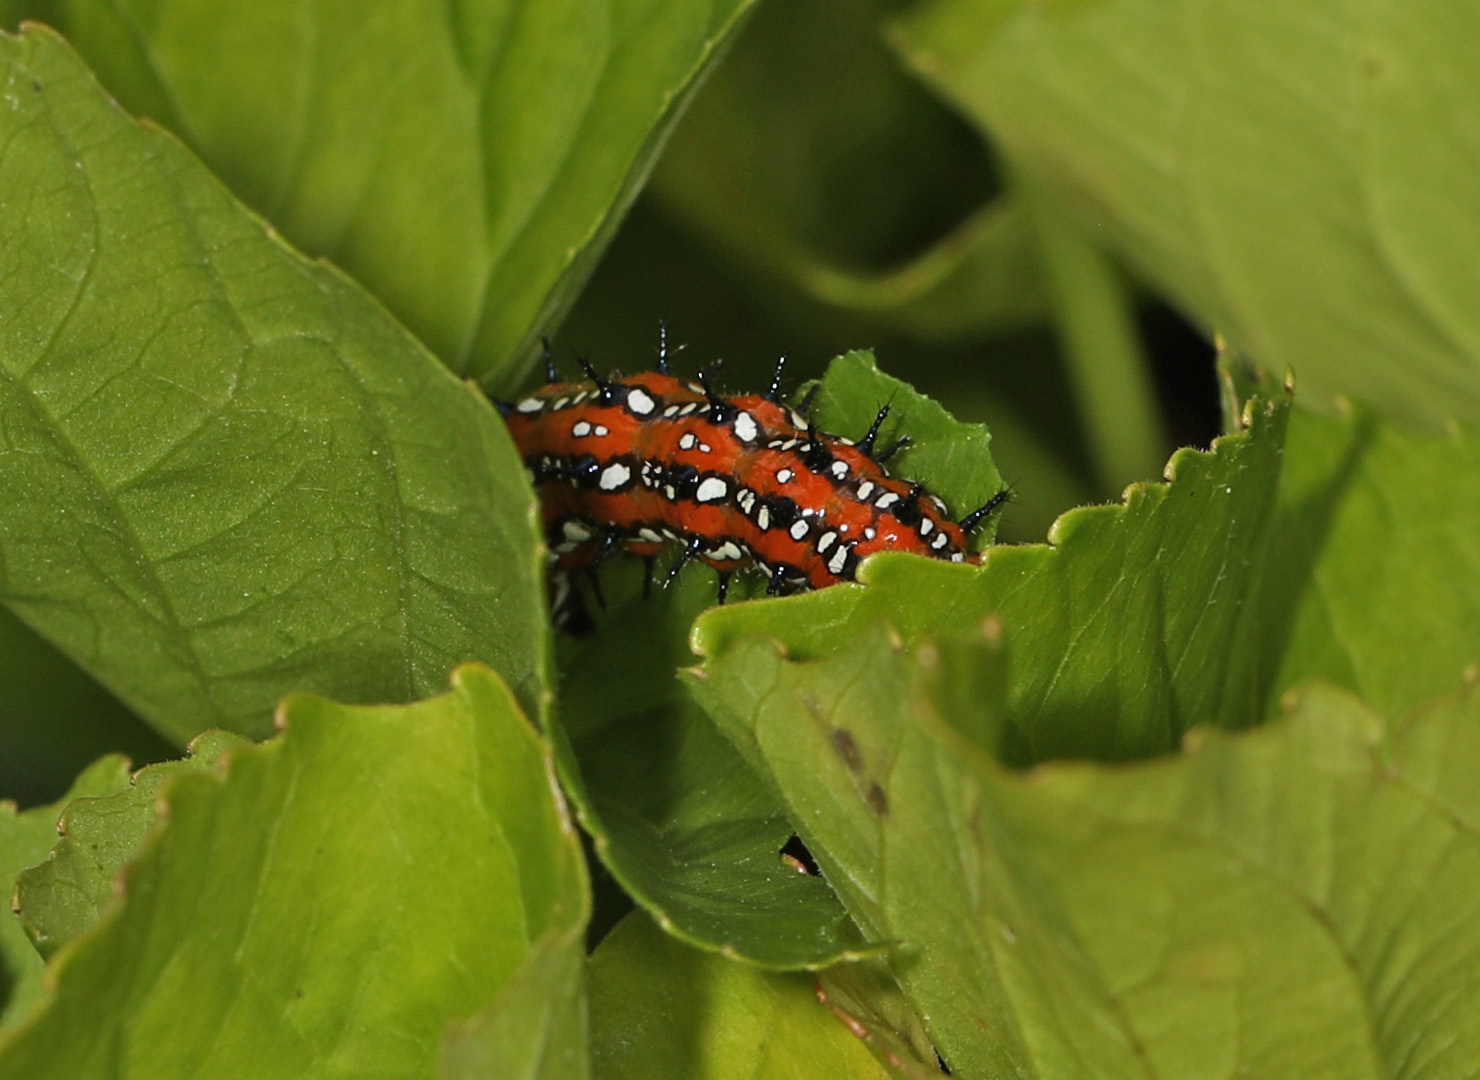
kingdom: Animalia
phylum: Arthropoda
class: Insecta
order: Lepidoptera
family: Nymphalidae
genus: Euptoieta
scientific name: Euptoieta claudia
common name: Variegated fritillary
